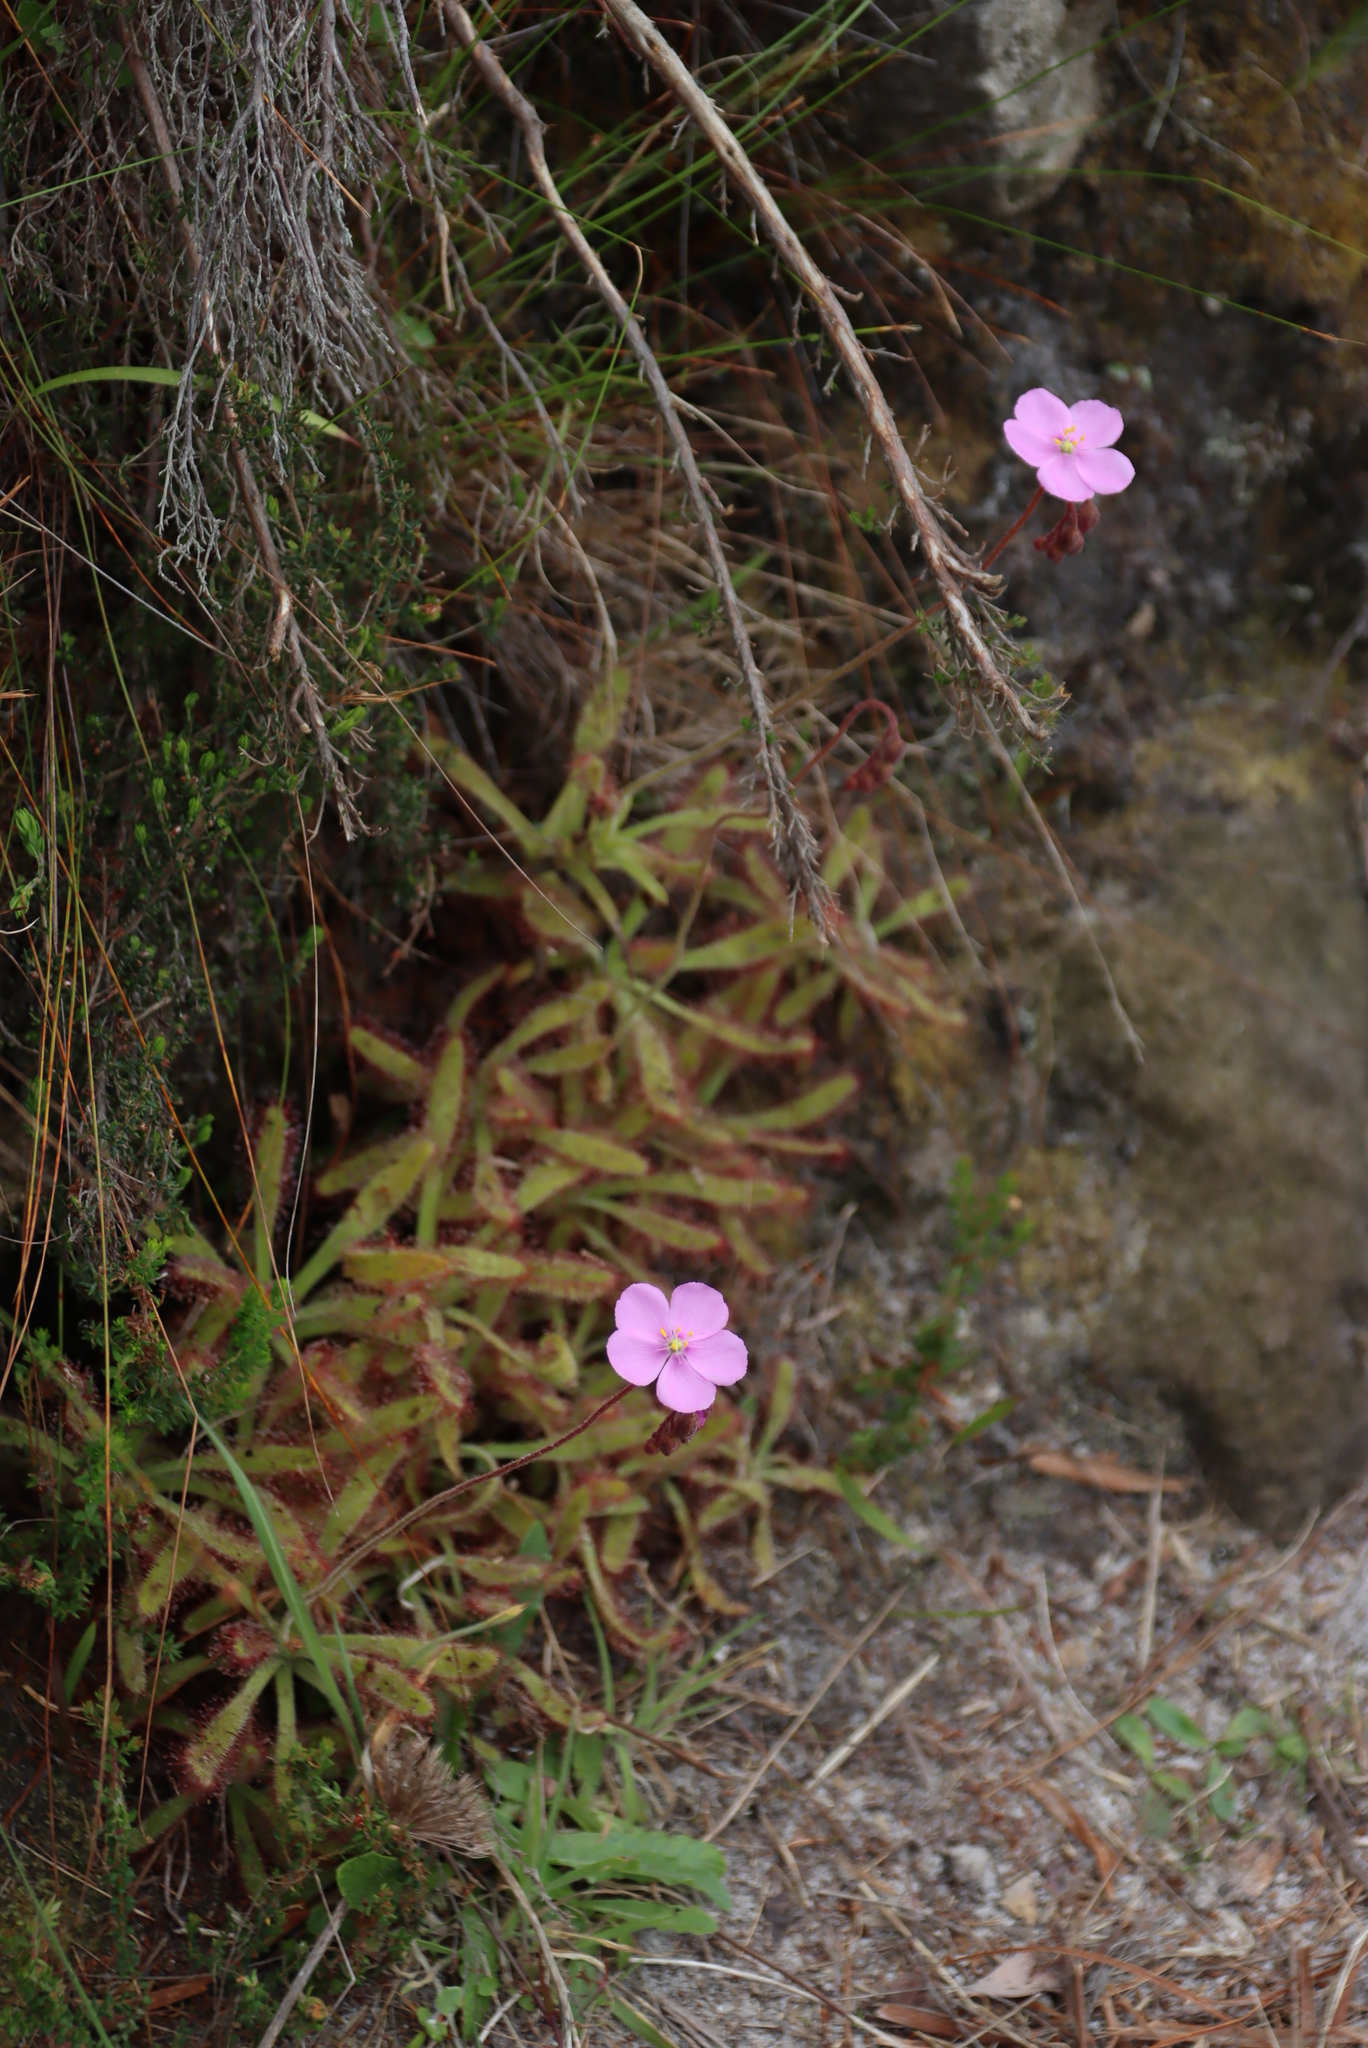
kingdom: Plantae
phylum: Tracheophyta
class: Magnoliopsida
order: Caryophyllales
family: Droseraceae
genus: Drosera
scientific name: Drosera hilaris
